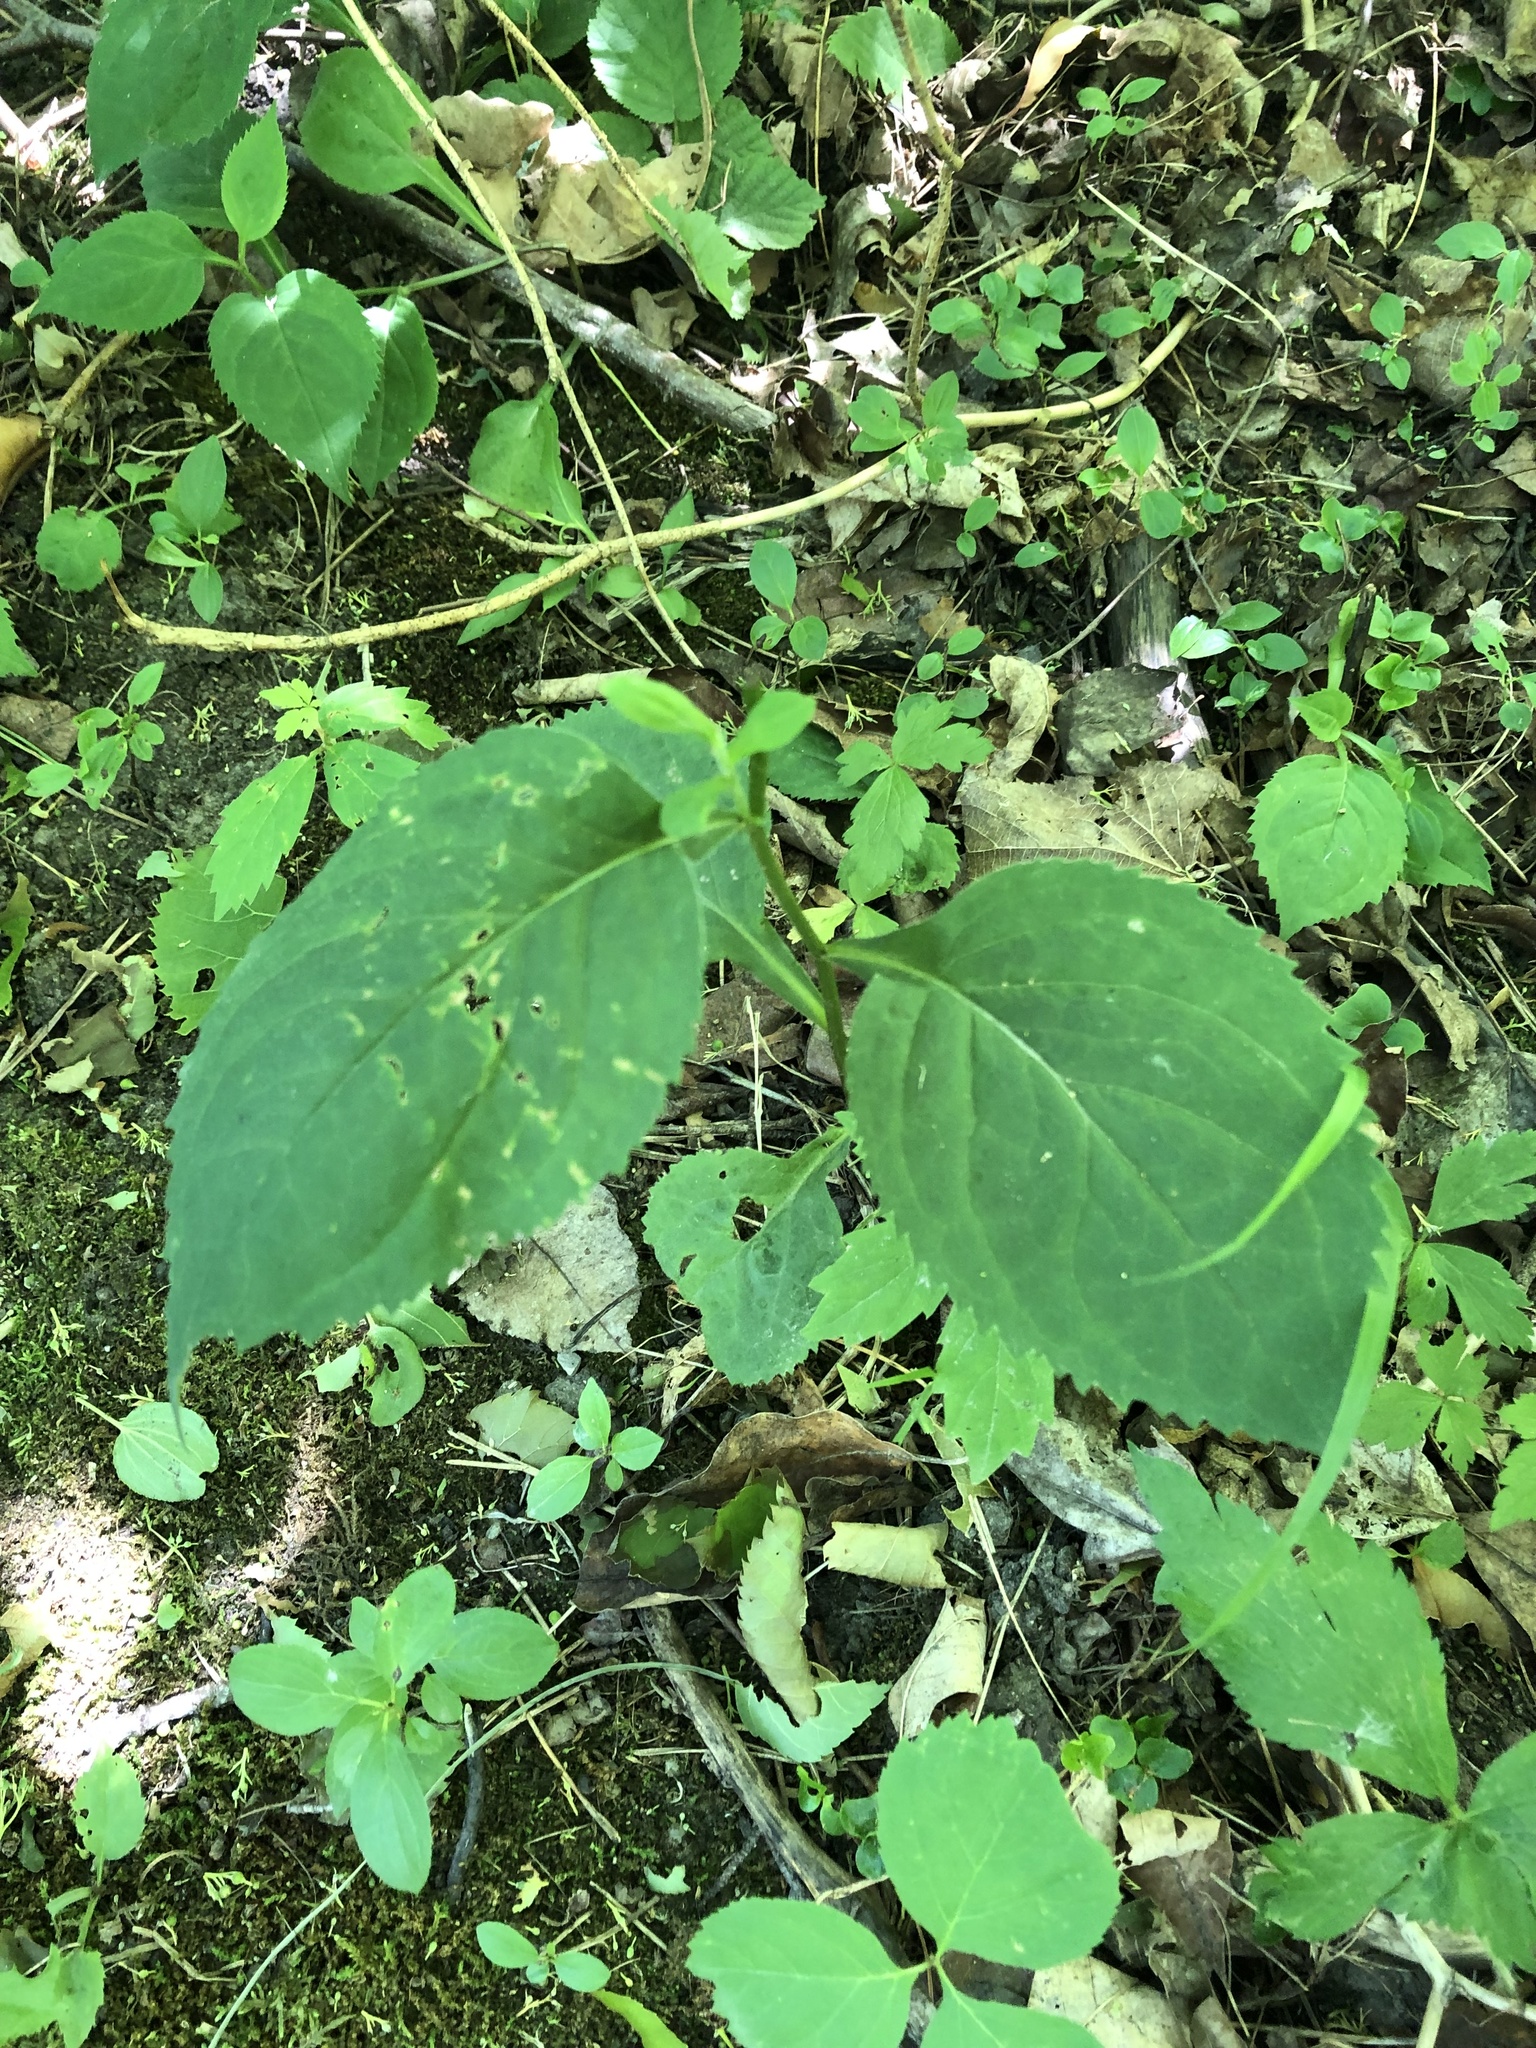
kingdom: Plantae
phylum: Tracheophyta
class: Magnoliopsida
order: Asterales
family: Asteraceae
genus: Solidago
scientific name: Solidago flexicaulis
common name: Zig-zag goldenrod
